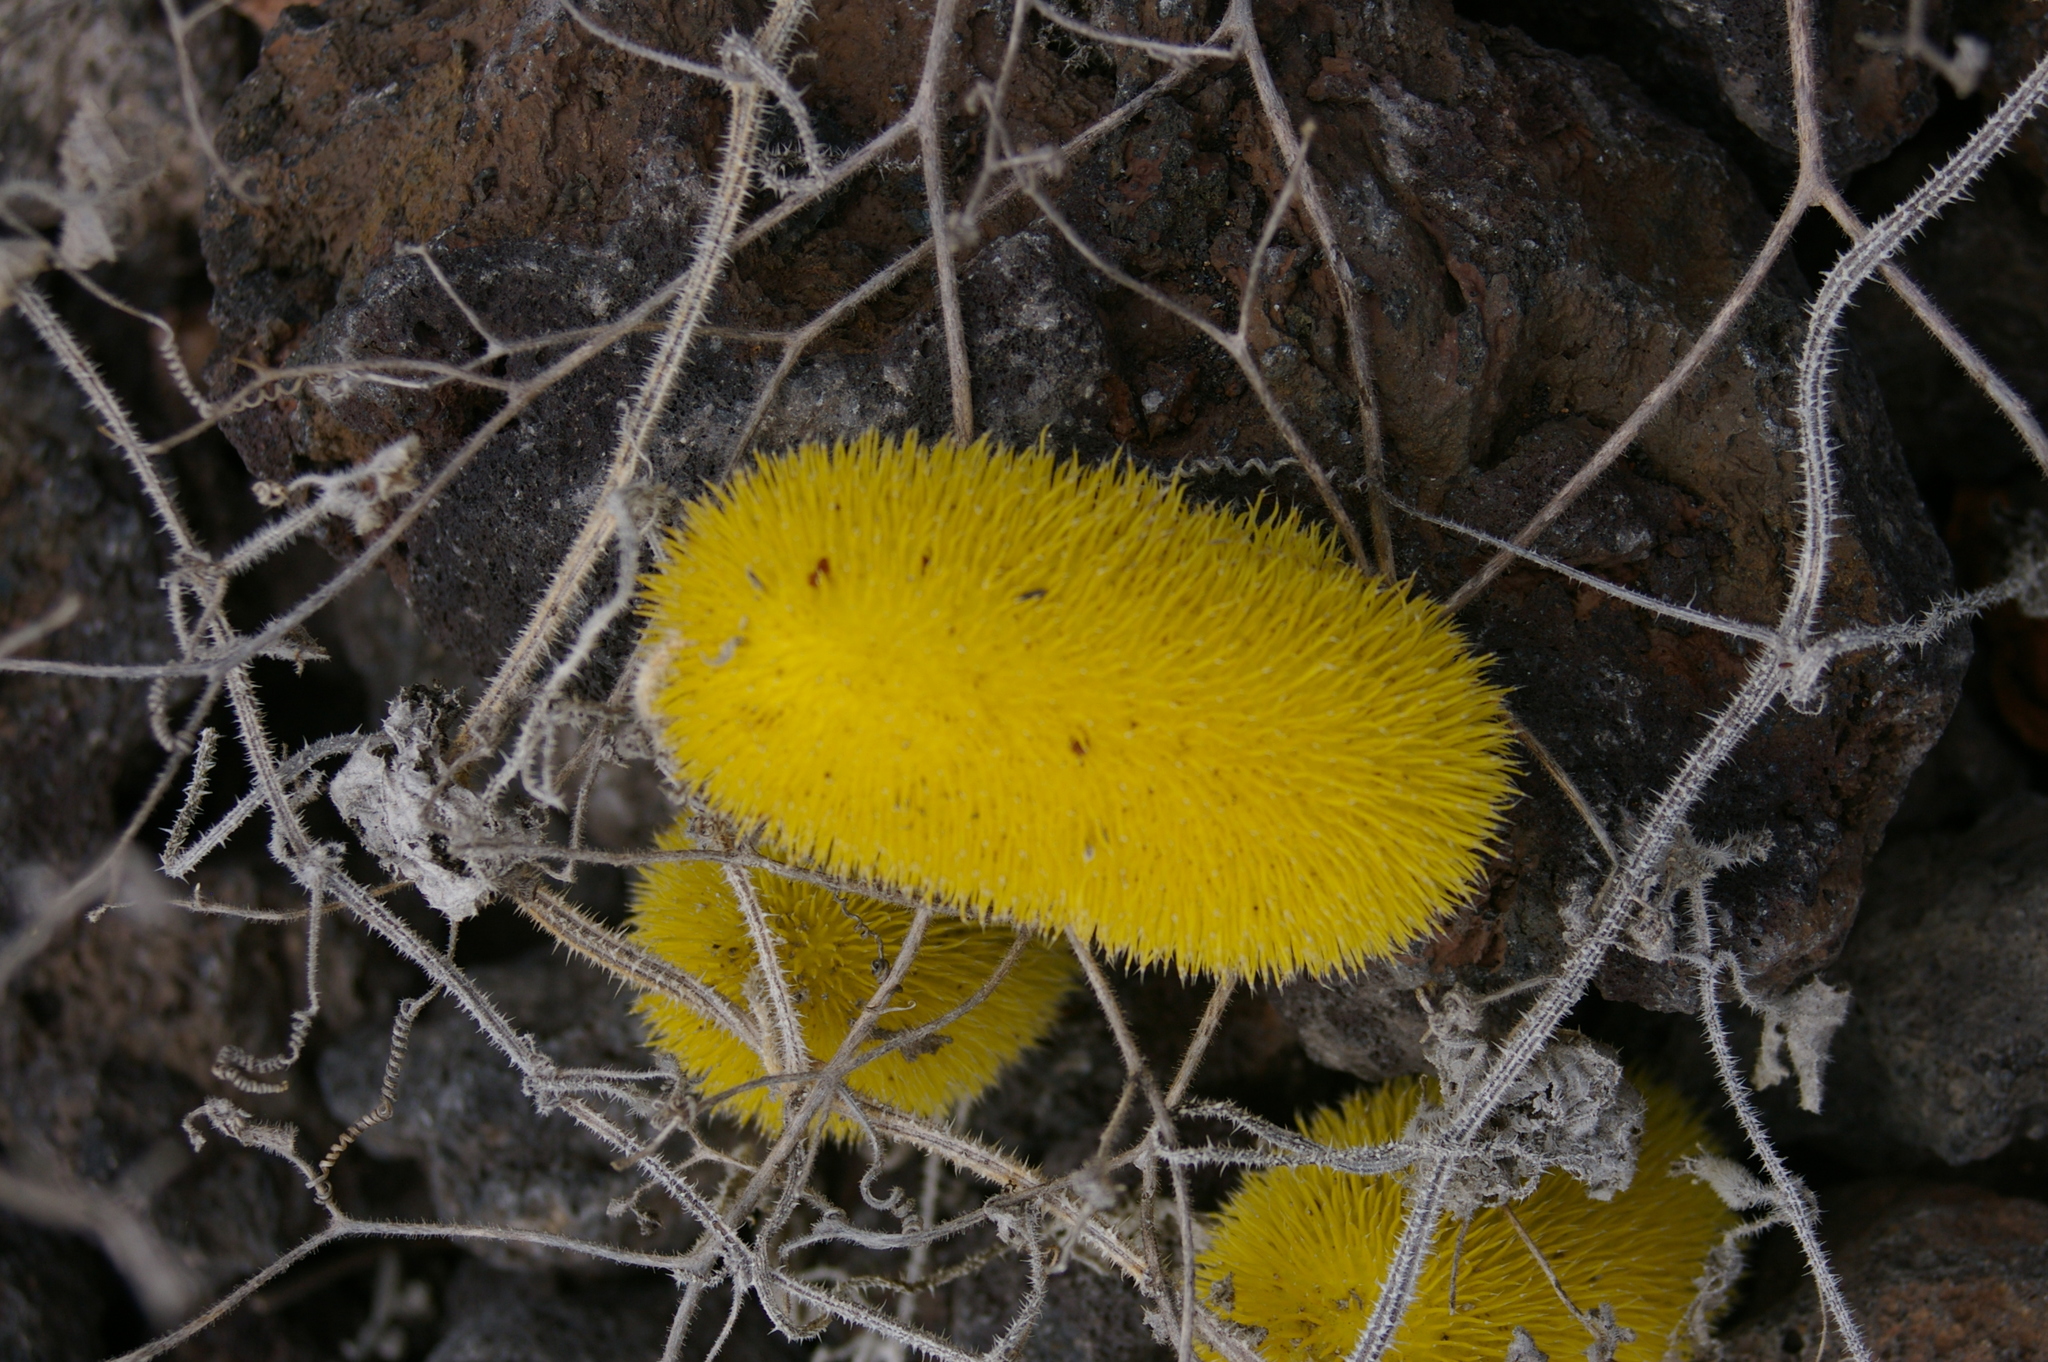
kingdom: Plantae
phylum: Tracheophyta
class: Magnoliopsida
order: Cucurbitales
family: Cucurbitaceae
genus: Cucumis
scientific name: Cucumis dipsaceus
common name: Hedgehog gourd
